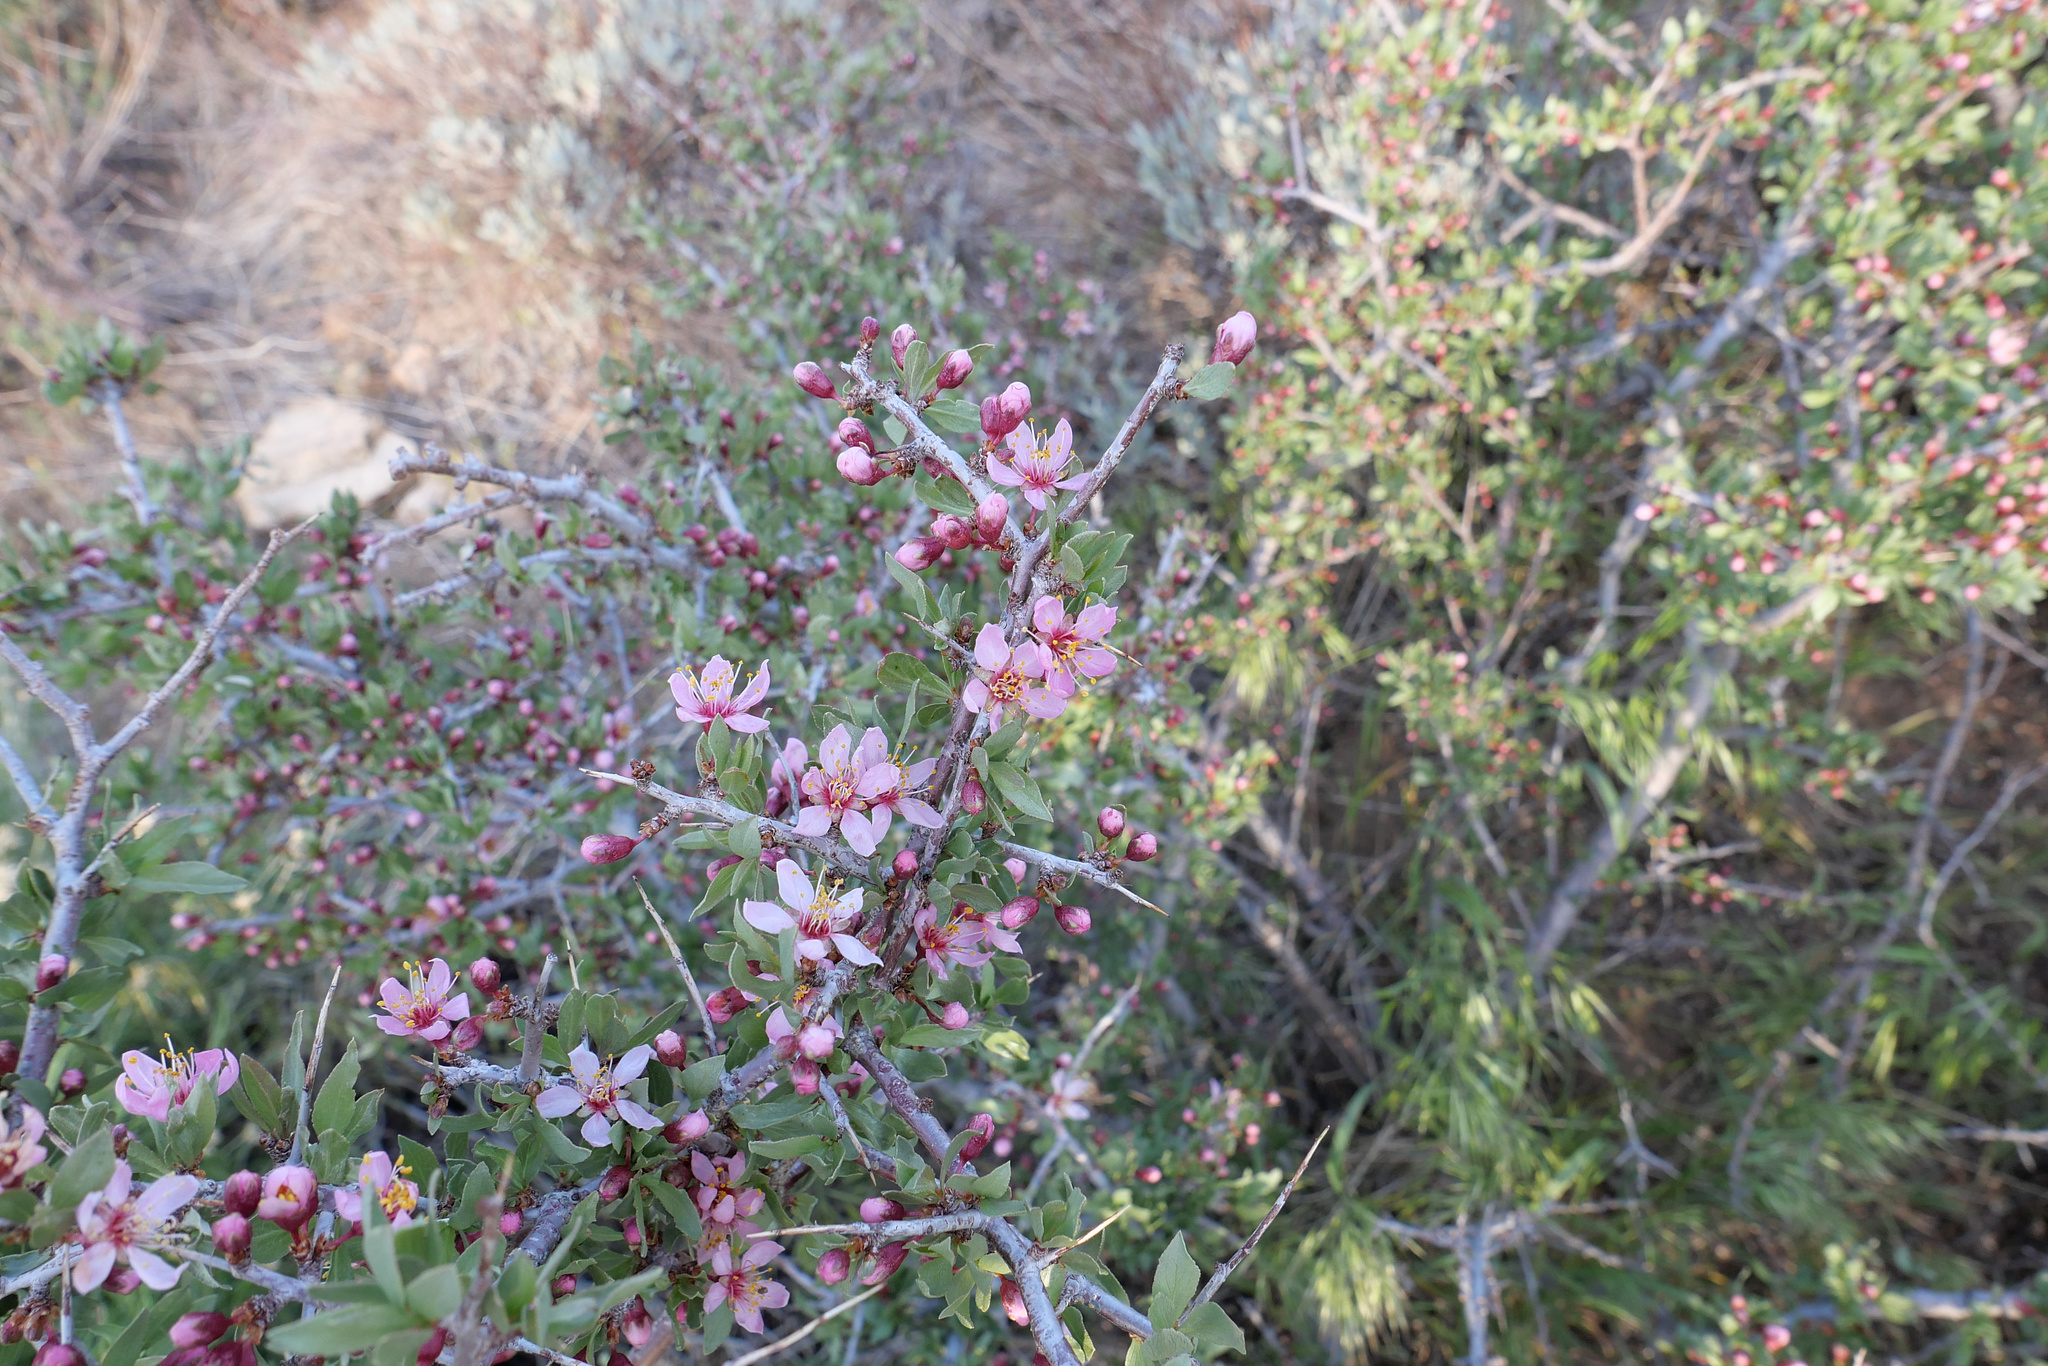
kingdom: Plantae
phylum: Tracheophyta
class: Magnoliopsida
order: Rosales
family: Rosaceae
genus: Prunus
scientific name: Prunus andersonii
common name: Desert peach
